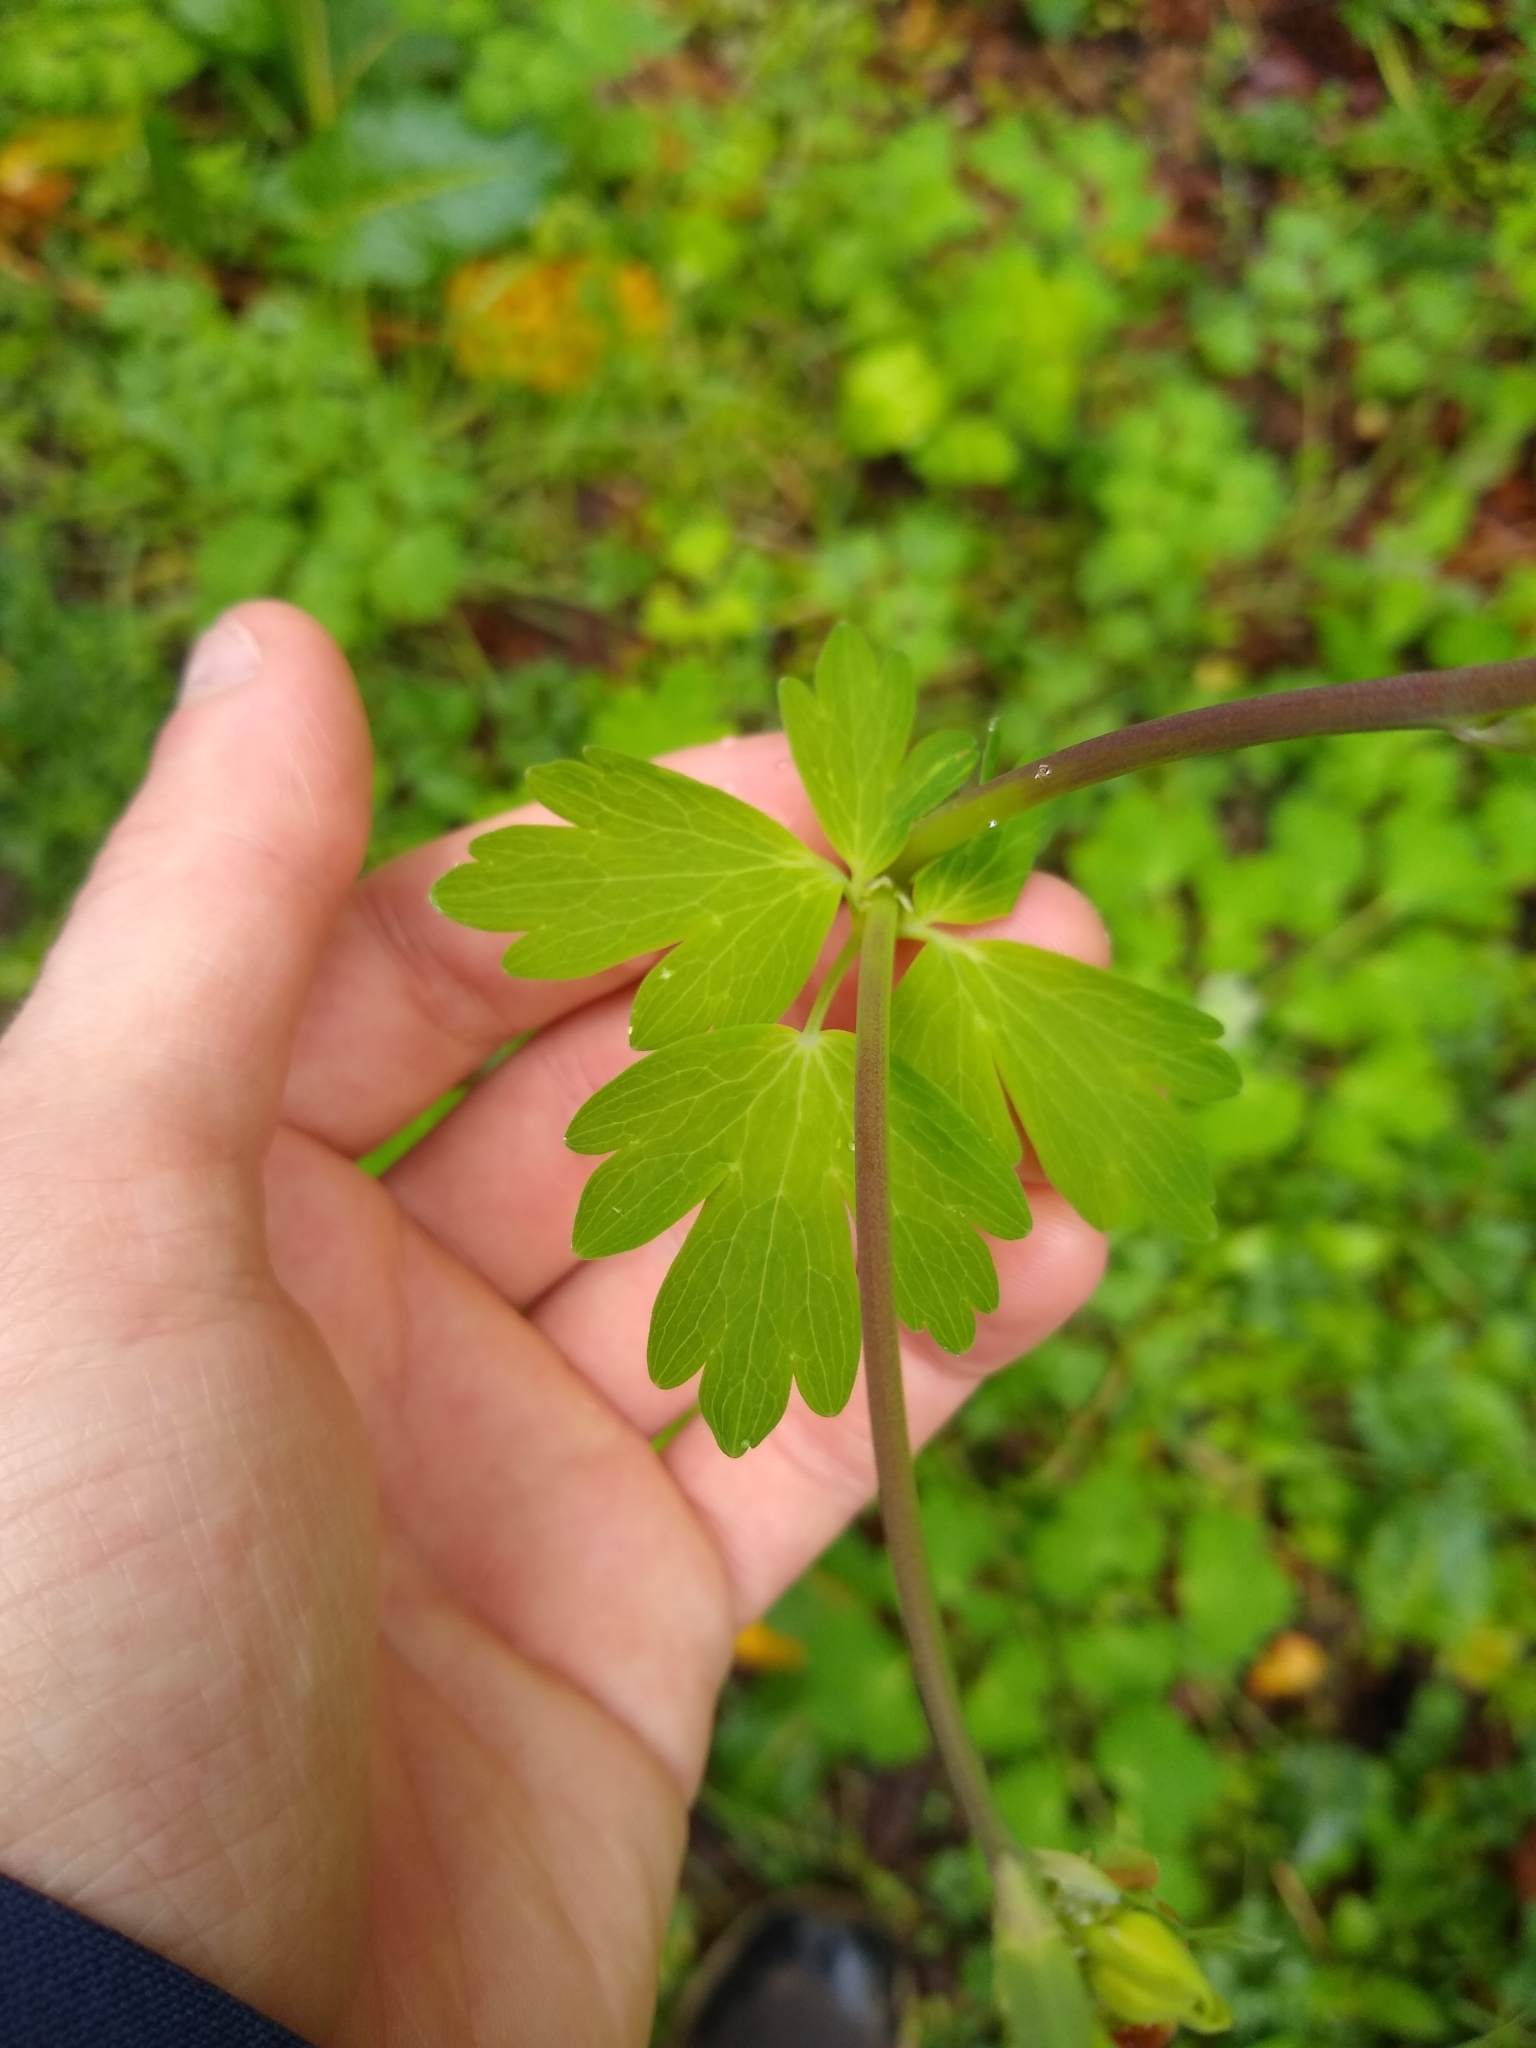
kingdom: Plantae
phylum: Tracheophyta
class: Magnoliopsida
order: Ranunculales
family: Ranunculaceae
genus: Aquilegia
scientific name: Aquilegia formosa
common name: Sitka columbine
